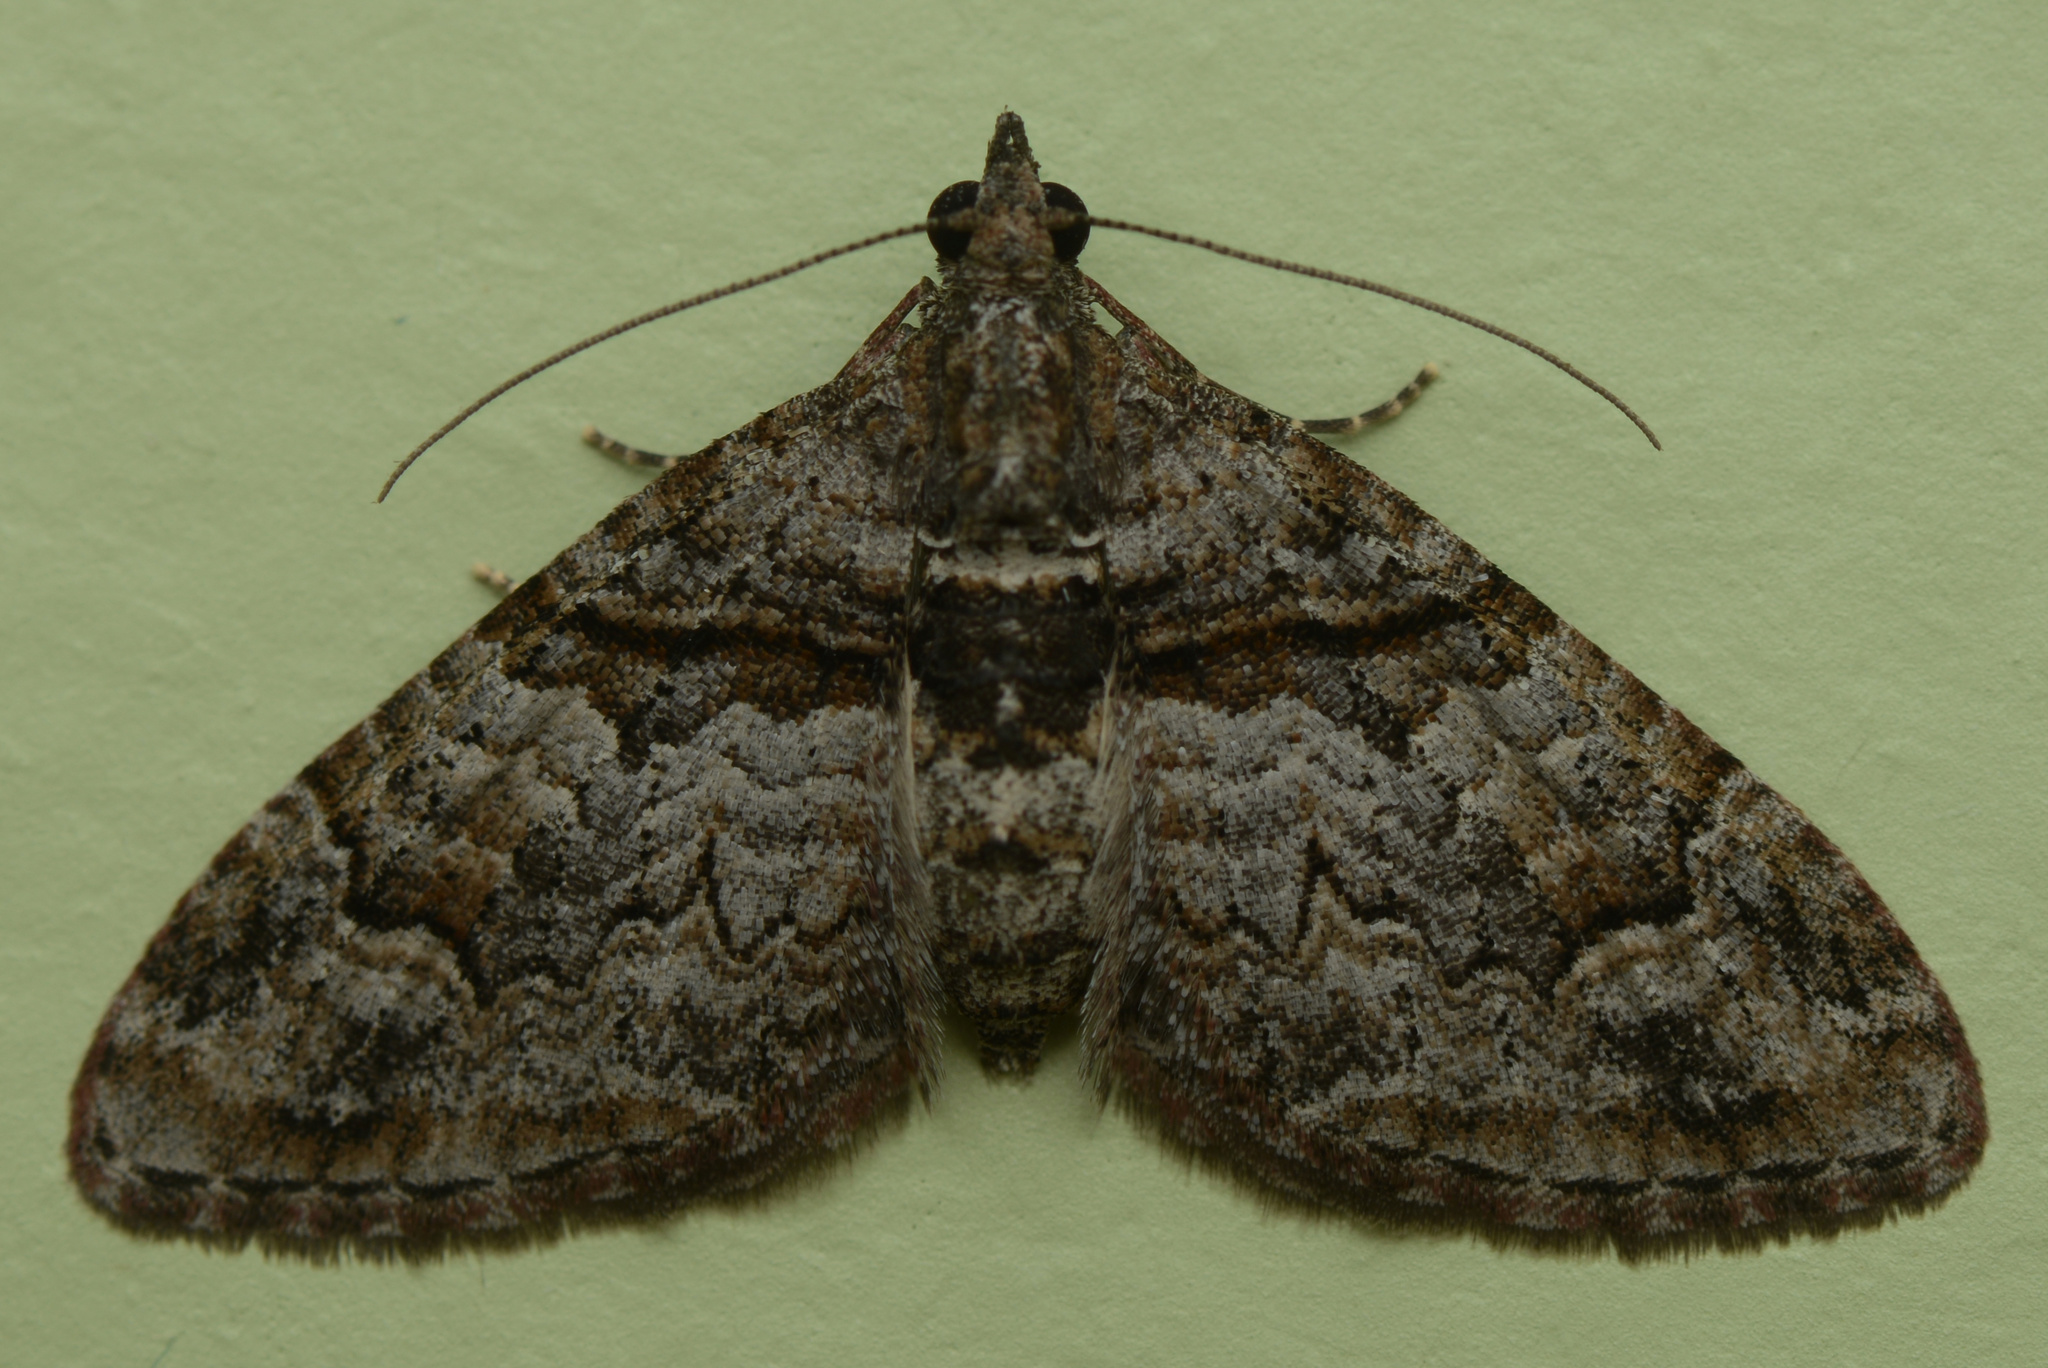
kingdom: Animalia
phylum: Arthropoda
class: Insecta
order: Lepidoptera
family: Geometridae
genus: Phrissogonus
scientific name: Phrissogonus laticostata
